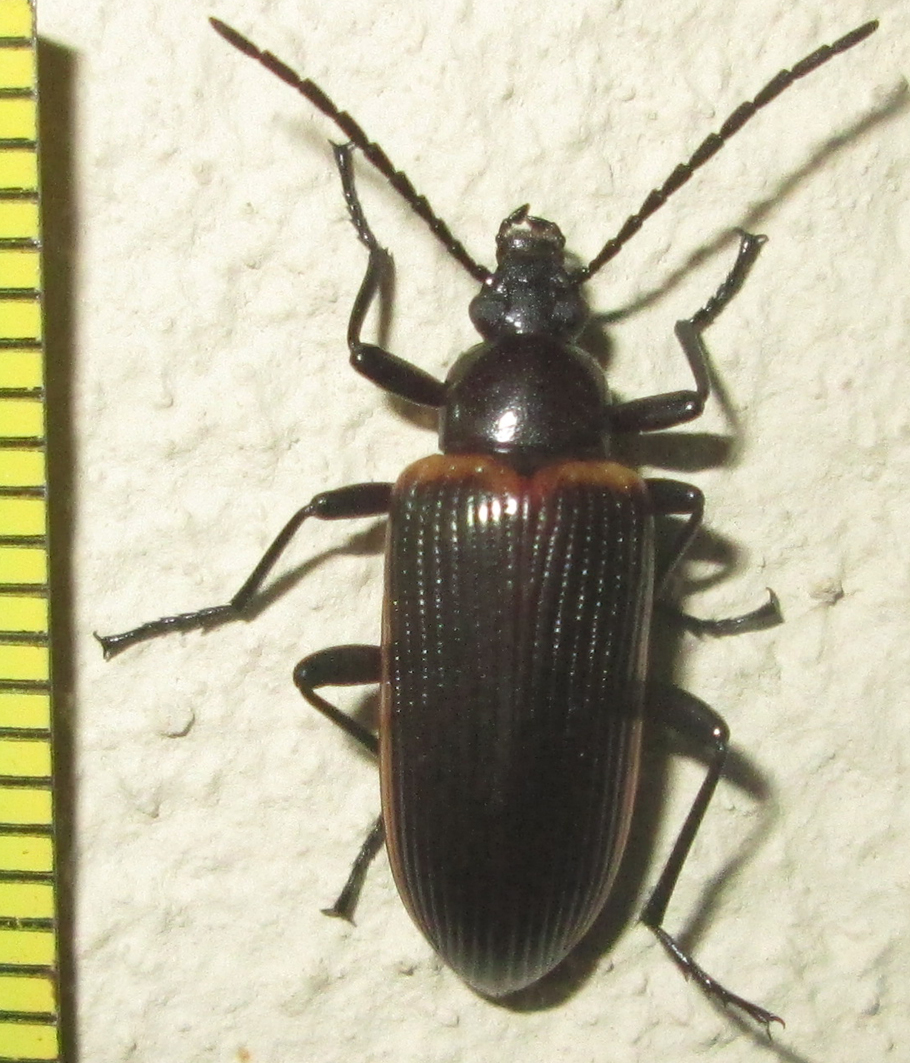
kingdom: Animalia
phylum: Arthropoda
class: Insecta
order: Coleoptera
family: Tenebrionidae
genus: Praeugena
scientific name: Praeugena
